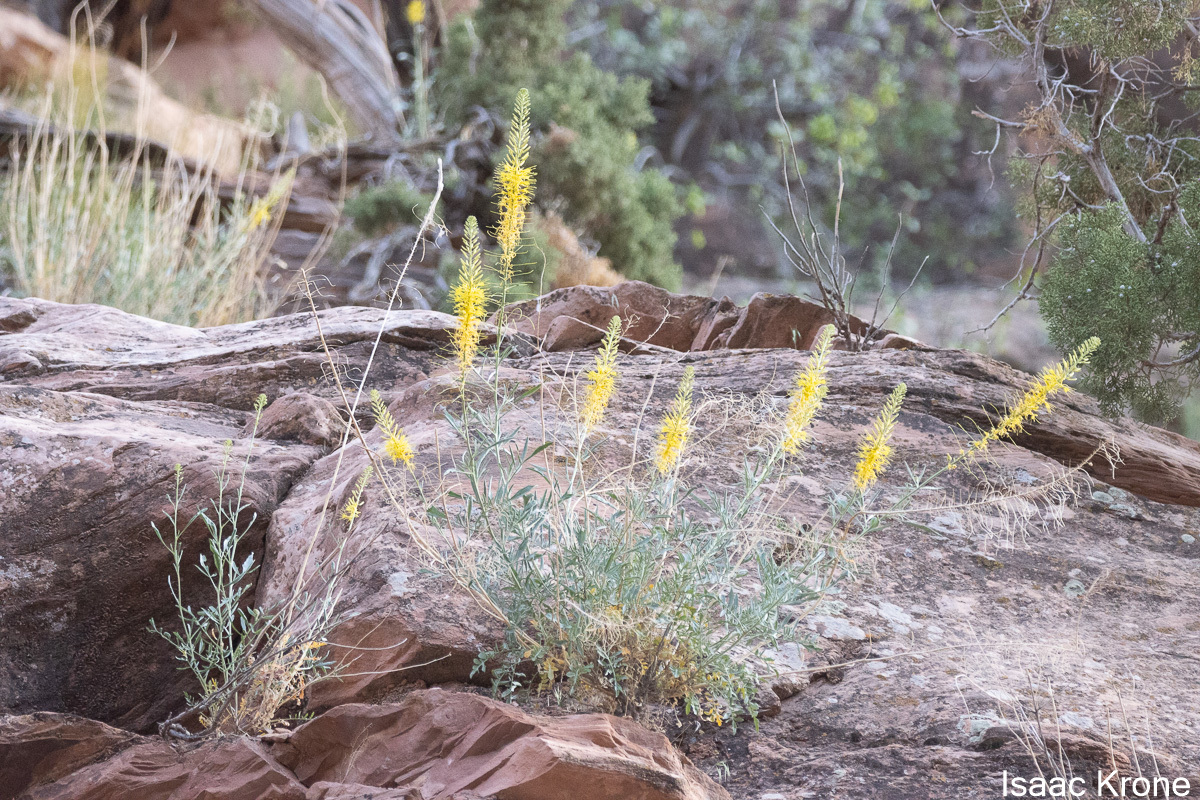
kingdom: Plantae
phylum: Tracheophyta
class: Magnoliopsida
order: Brassicales
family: Brassicaceae
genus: Stanleya
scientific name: Stanleya pinnata
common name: Prince's-plume
